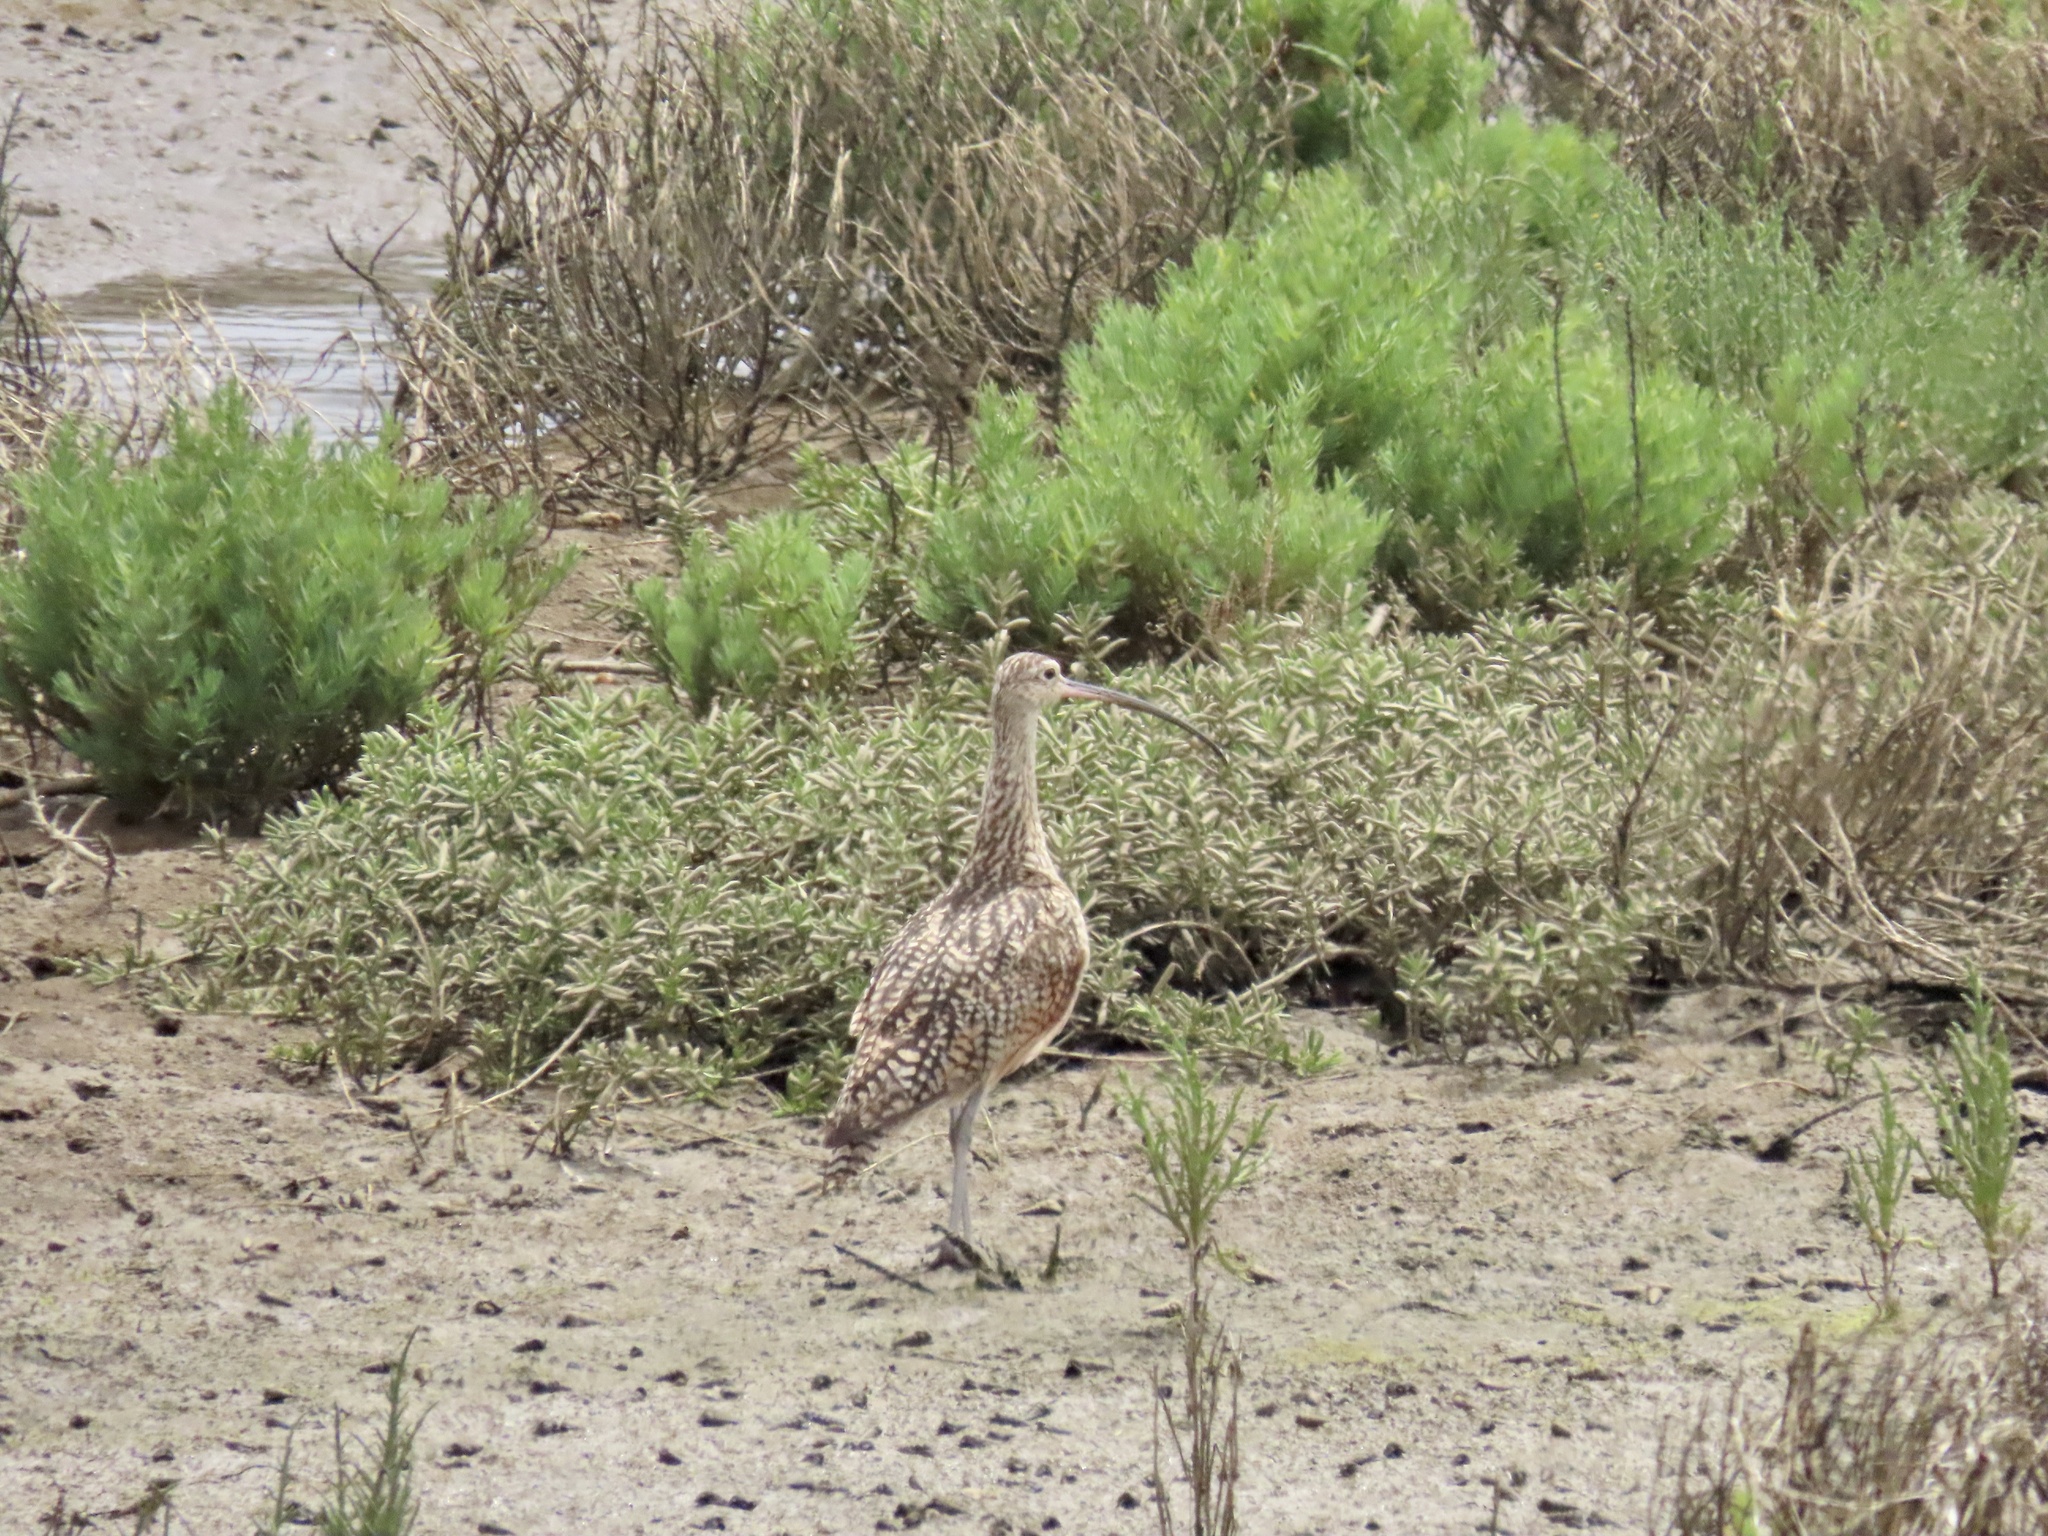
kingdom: Animalia
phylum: Chordata
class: Aves
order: Charadriiformes
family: Scolopacidae
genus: Numenius
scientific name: Numenius americanus
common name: Long-billed curlew
